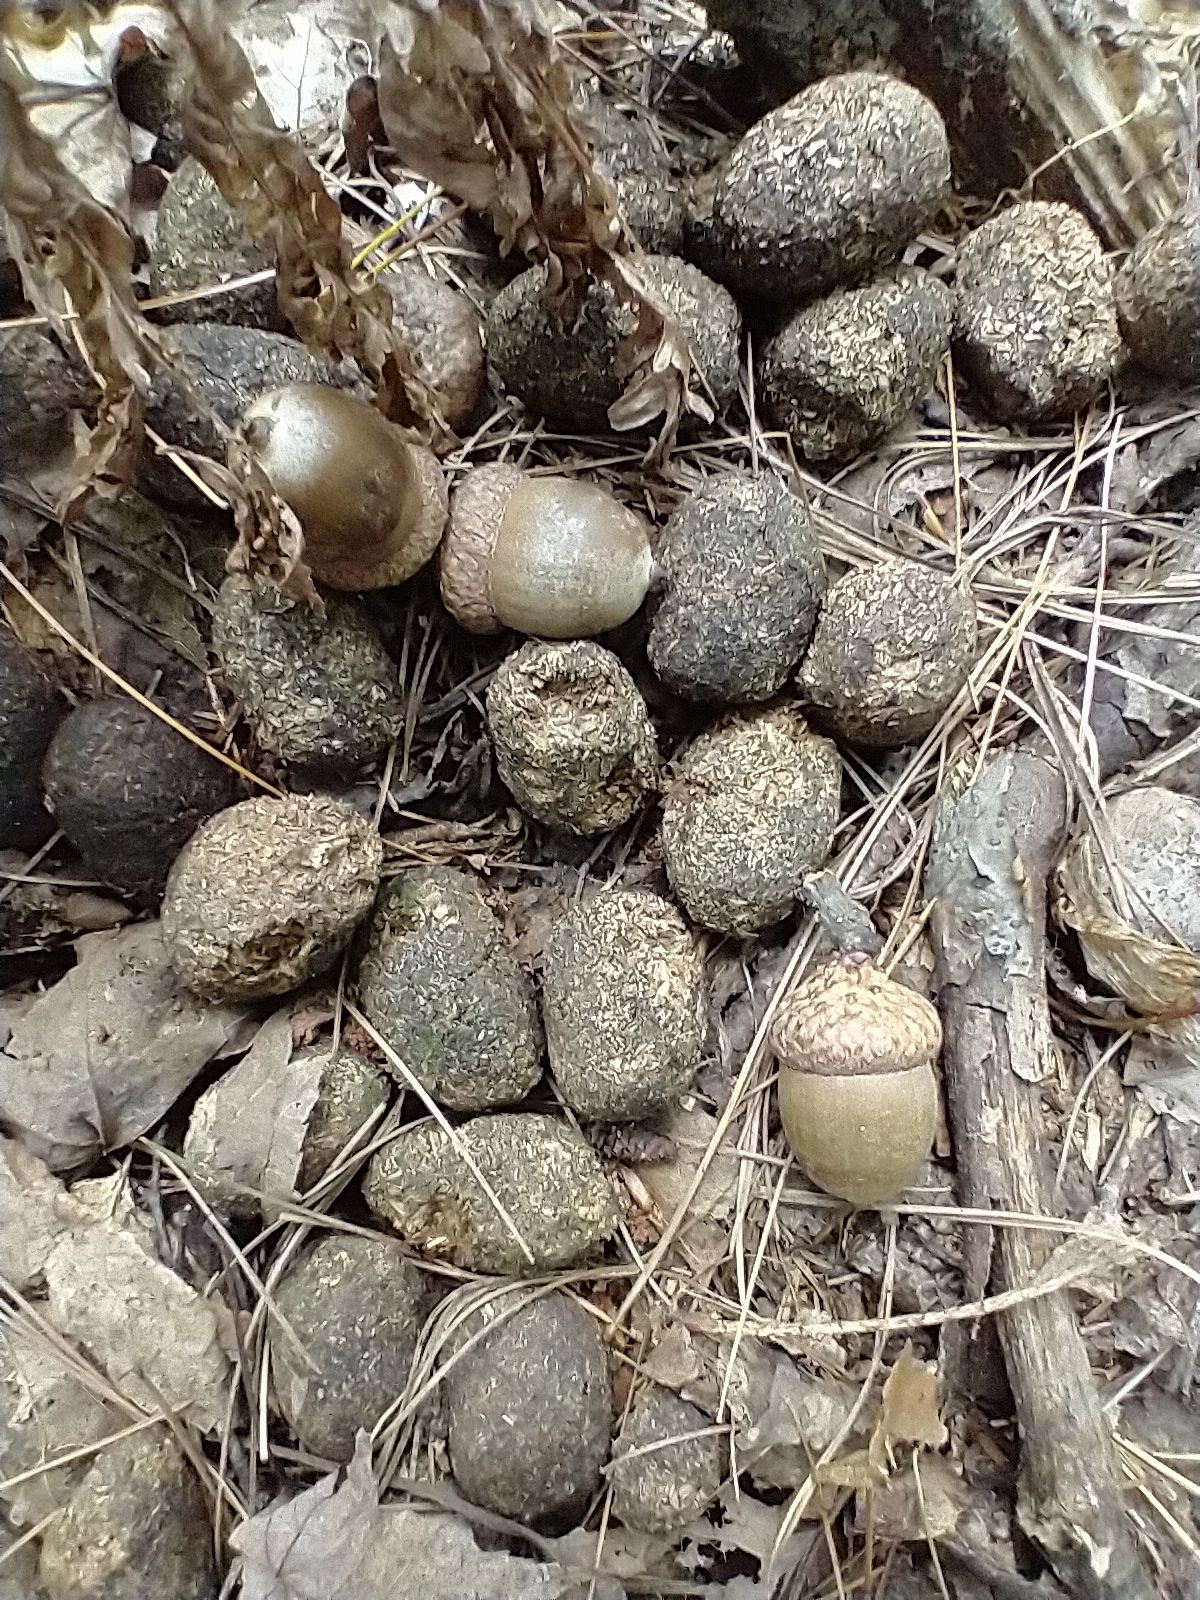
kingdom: Animalia
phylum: Chordata
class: Mammalia
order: Artiodactyla
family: Cervidae
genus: Alces
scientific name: Alces alces
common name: Moose
